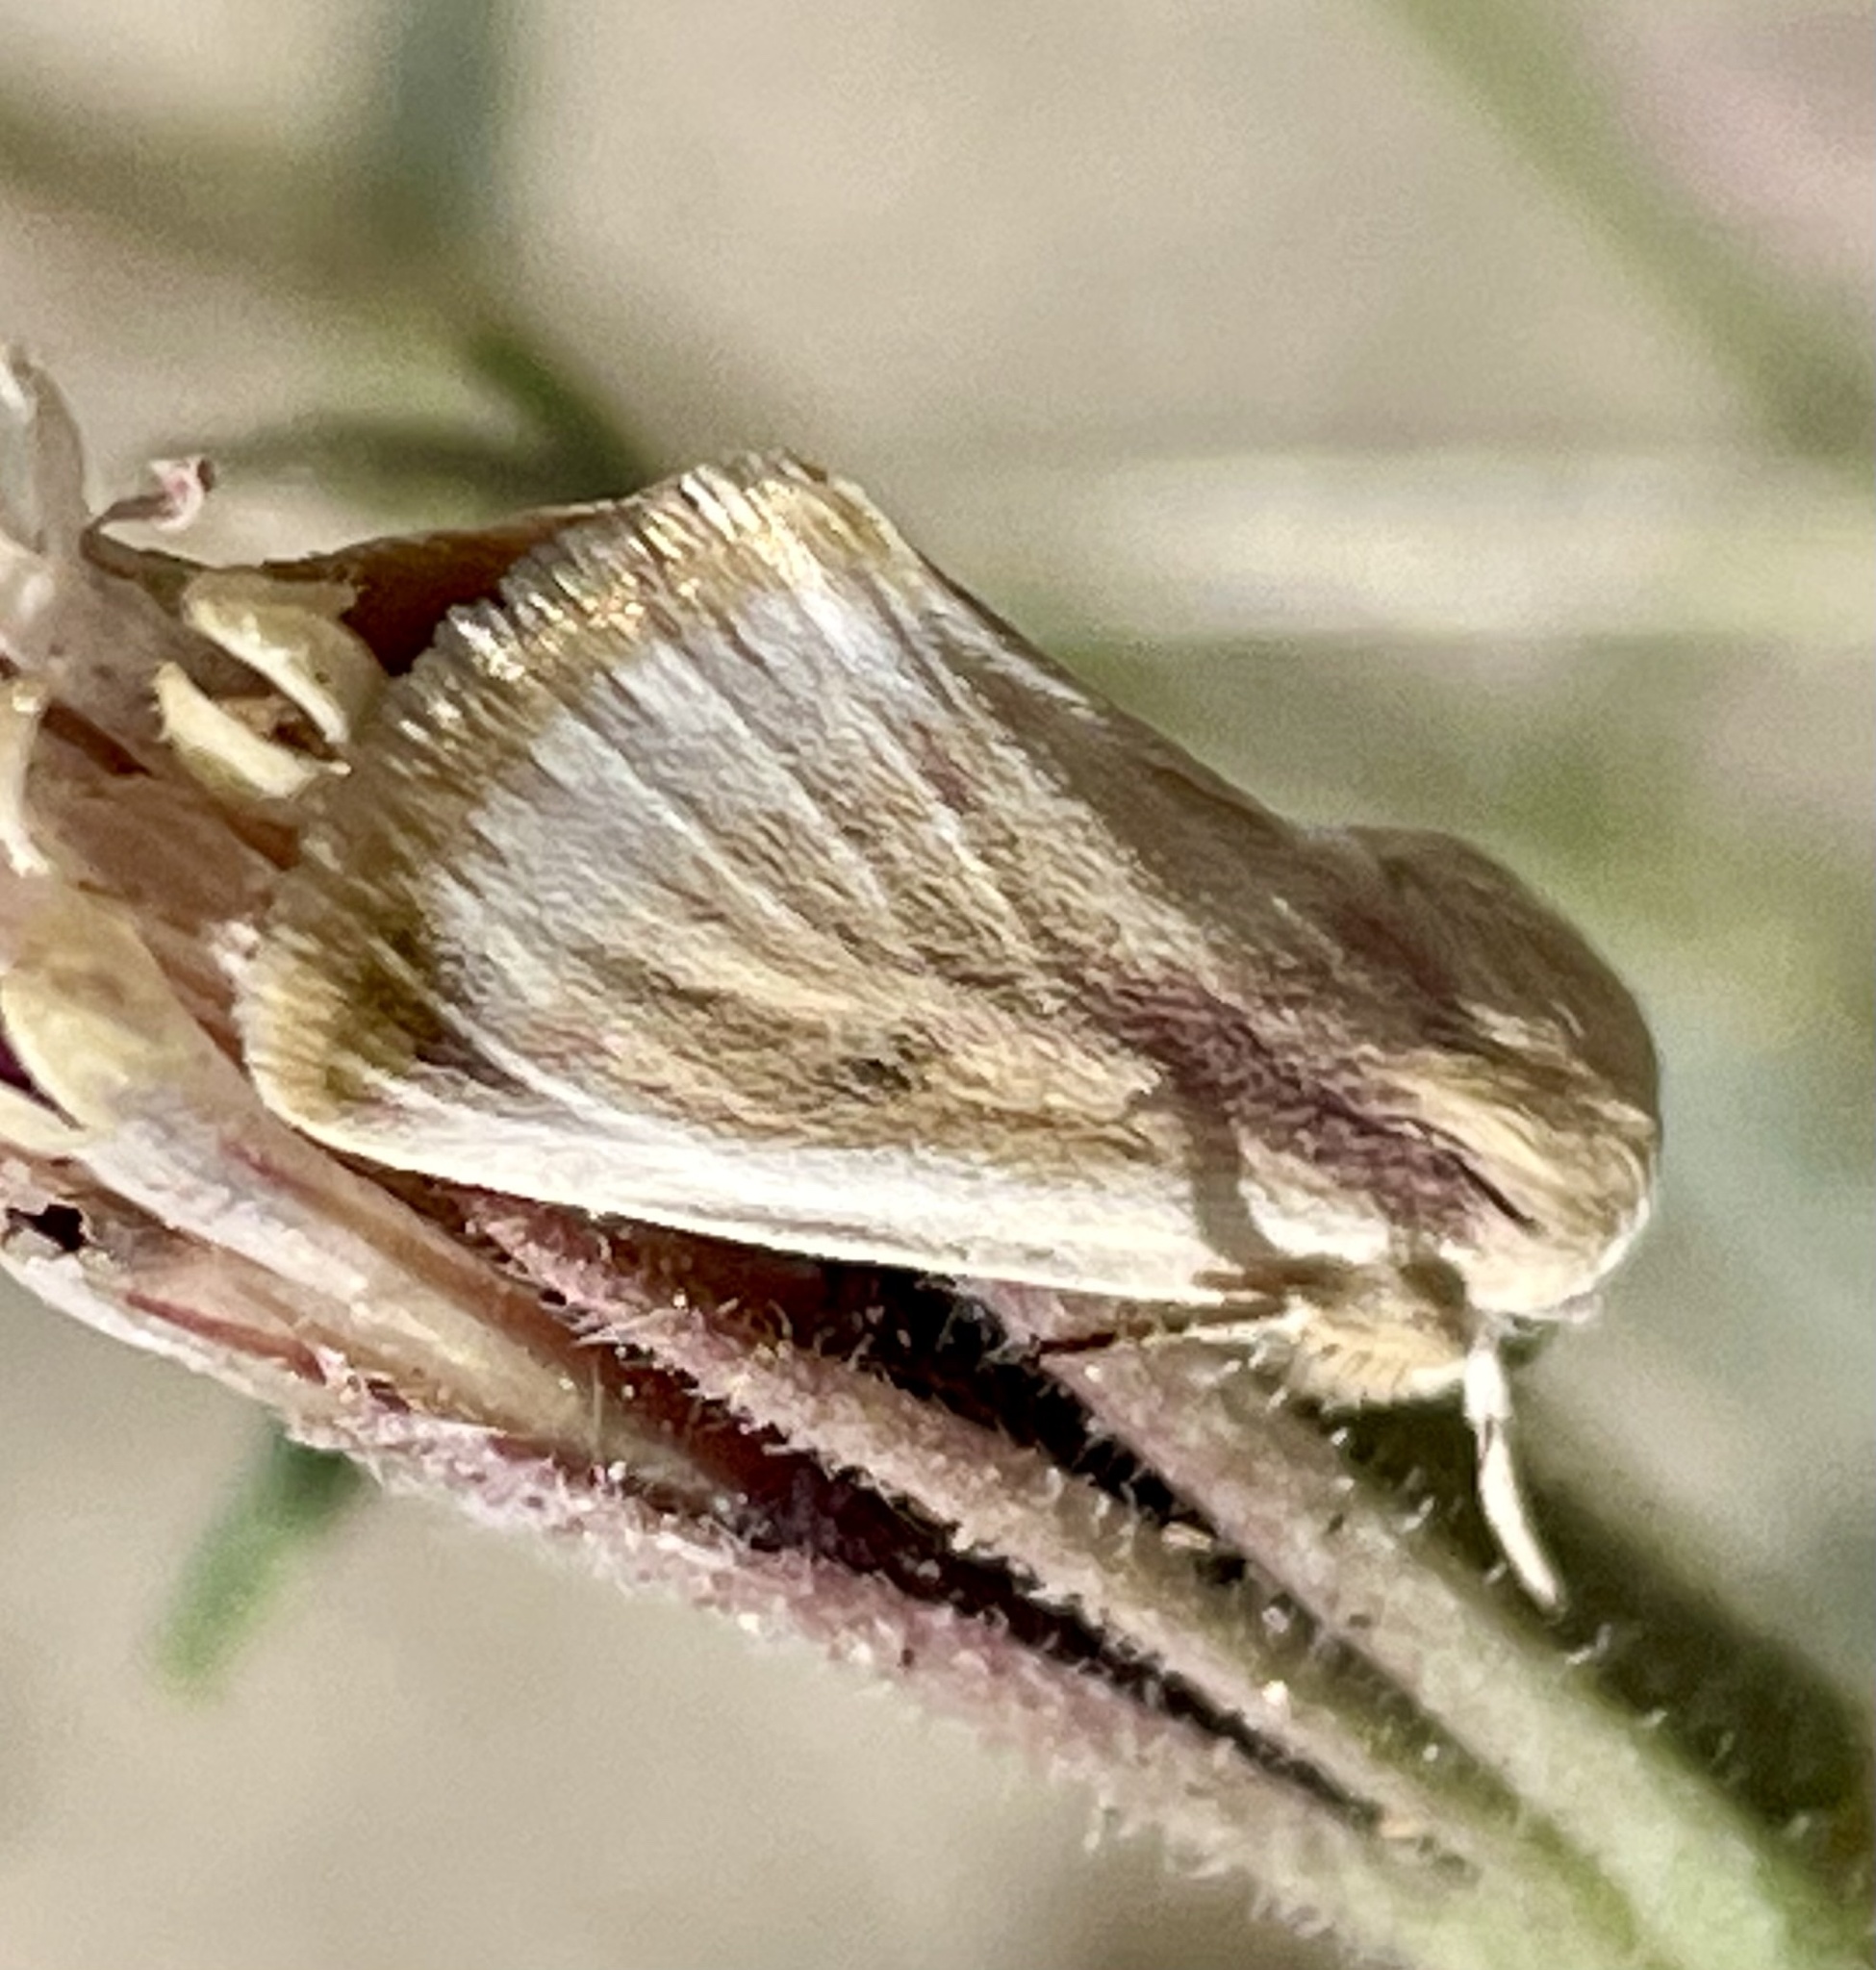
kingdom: Animalia
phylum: Arthropoda
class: Insecta
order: Lepidoptera
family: Noctuidae
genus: Schinia
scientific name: Schinia niveicosta
